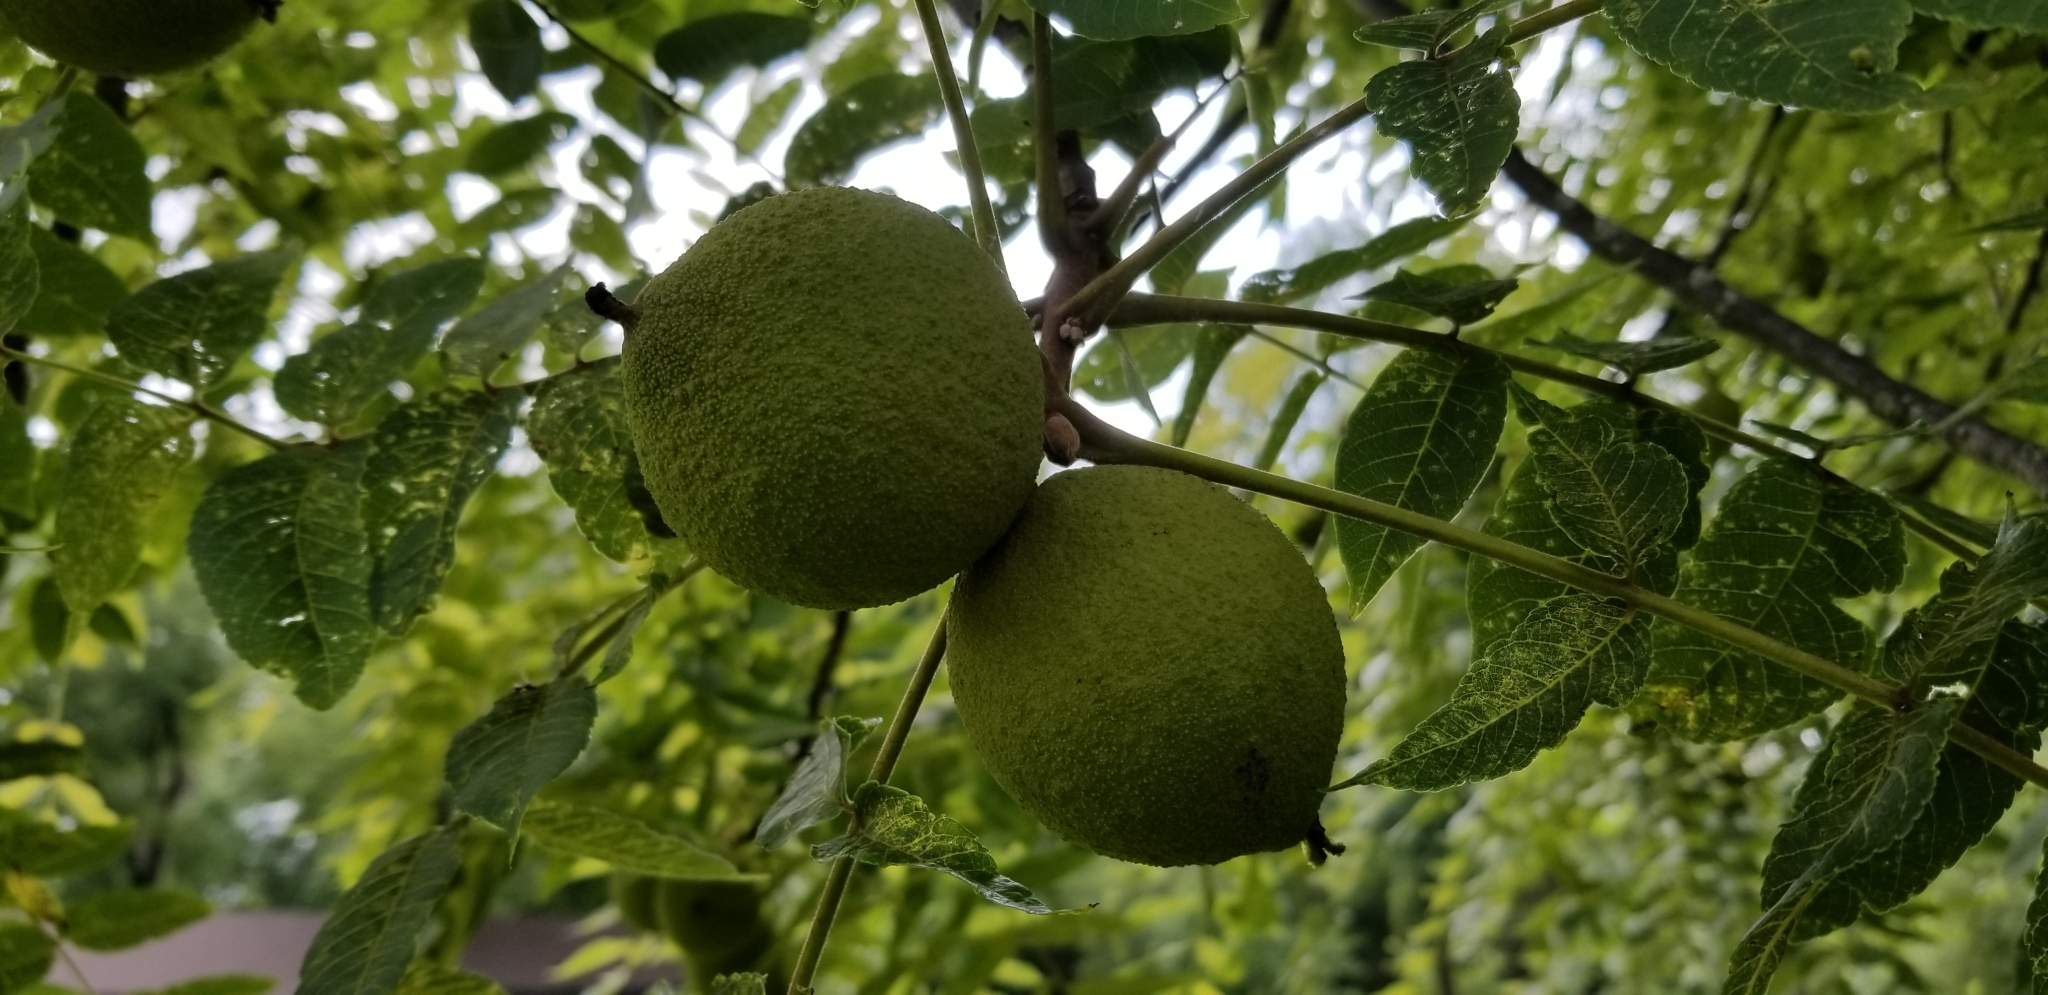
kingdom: Plantae
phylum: Tracheophyta
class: Magnoliopsida
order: Fagales
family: Juglandaceae
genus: Juglans
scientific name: Juglans nigra
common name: Black walnut
